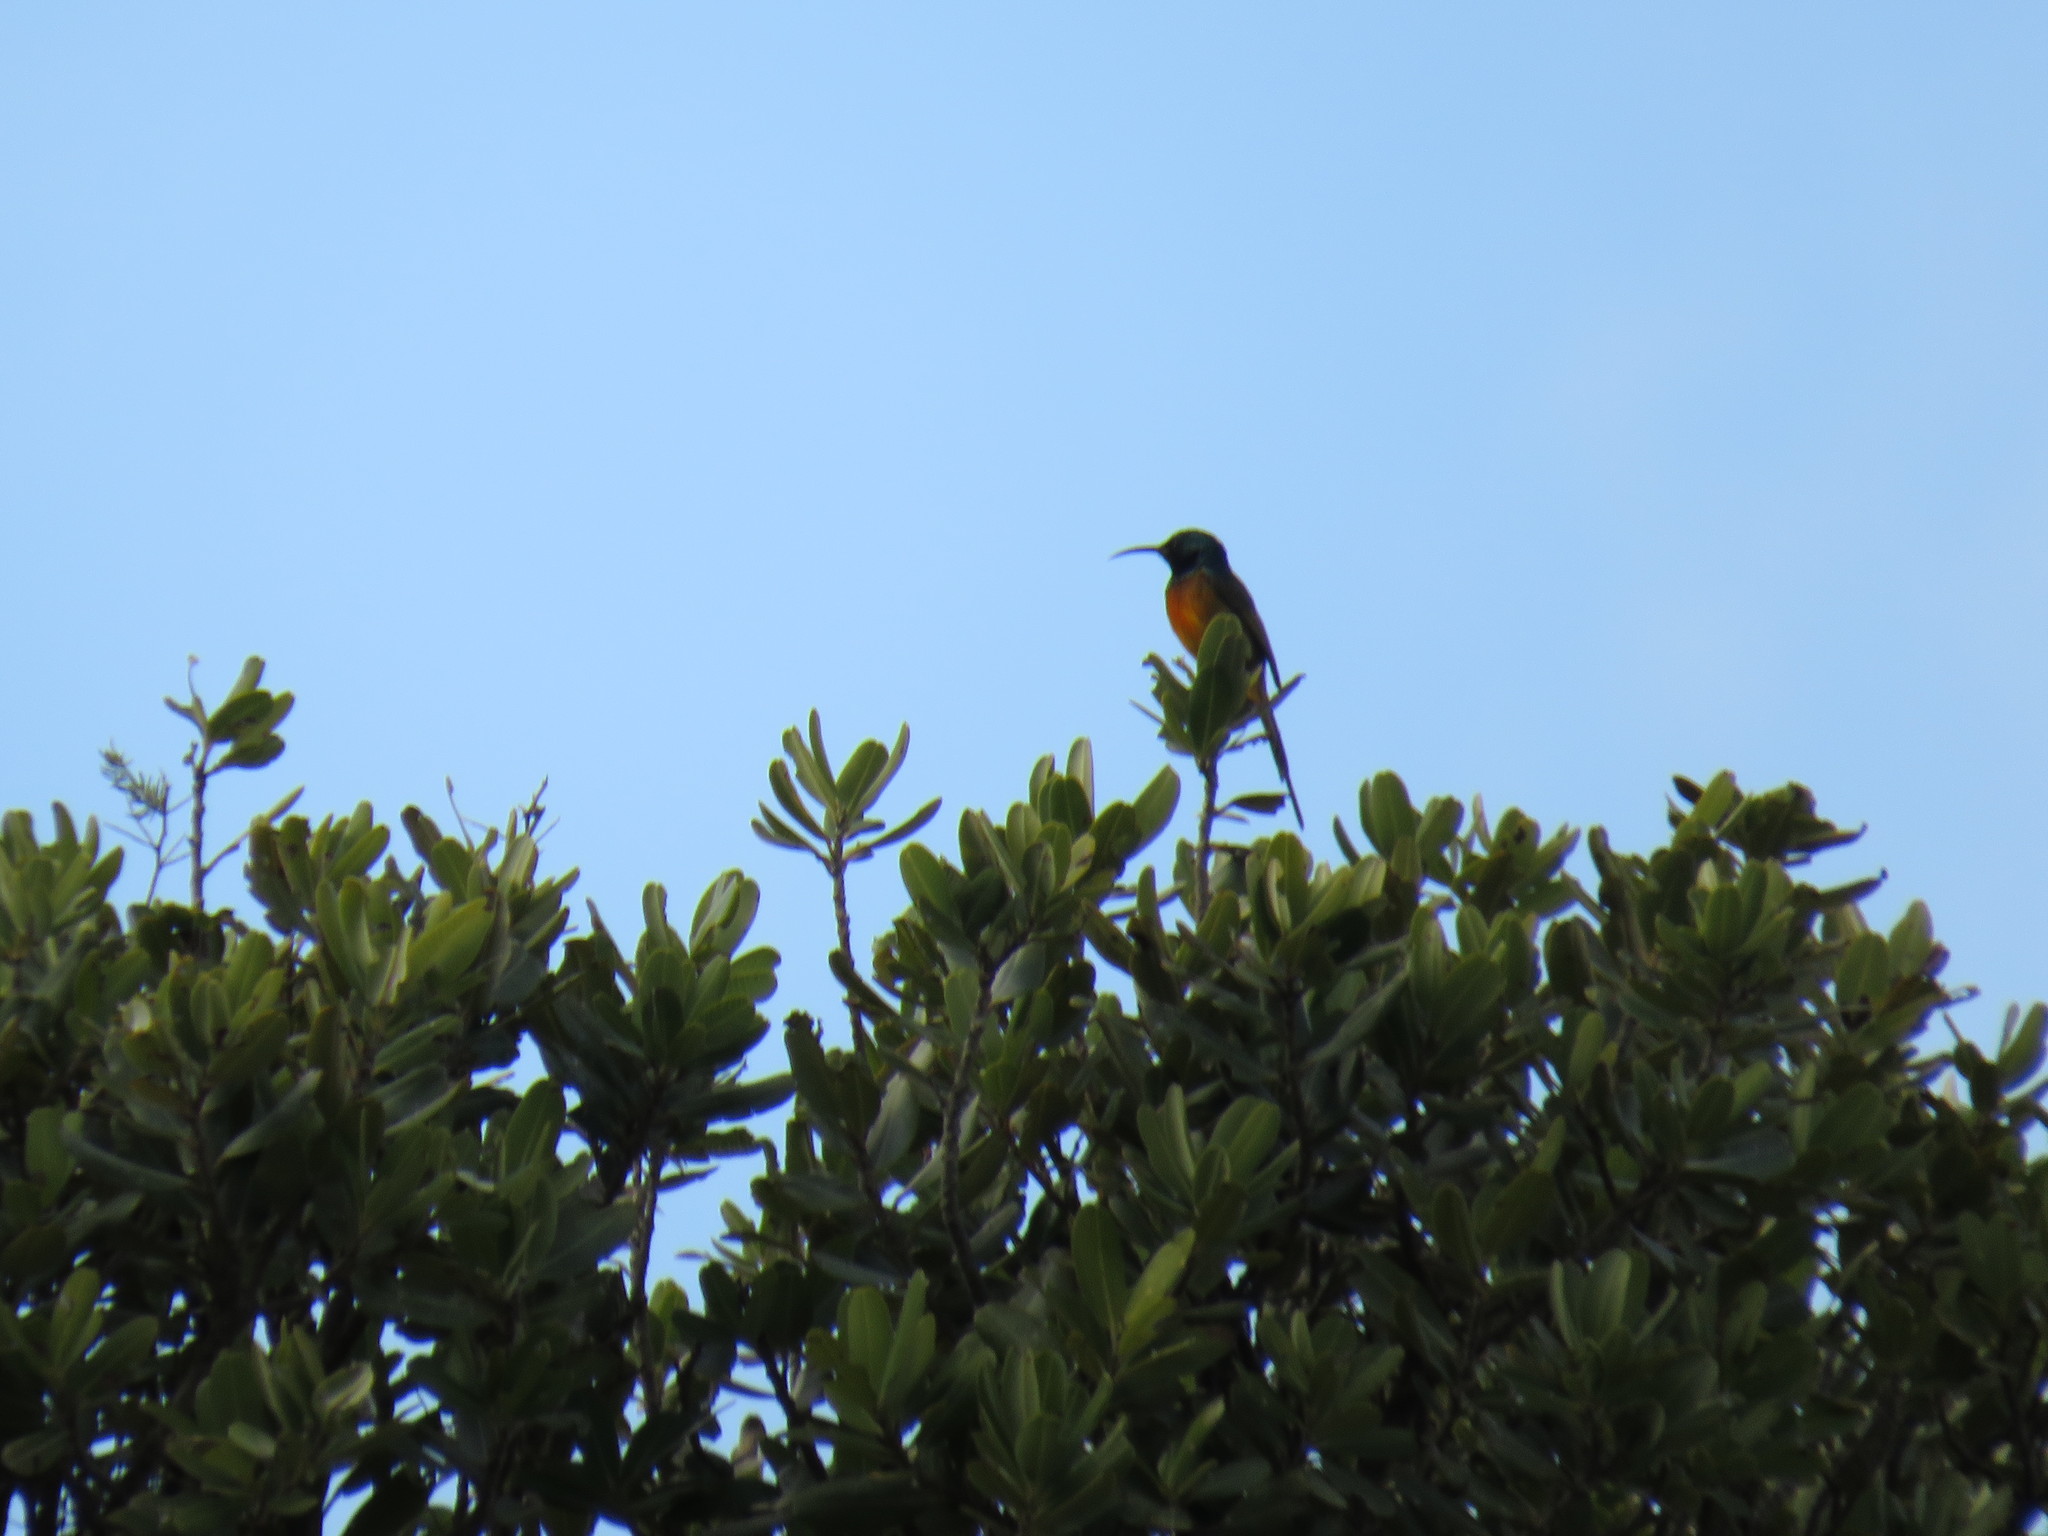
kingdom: Animalia
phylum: Chordata
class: Aves
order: Passeriformes
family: Nectariniidae
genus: Anthobaphes
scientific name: Anthobaphes violacea
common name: Orange-breasted sunbird
